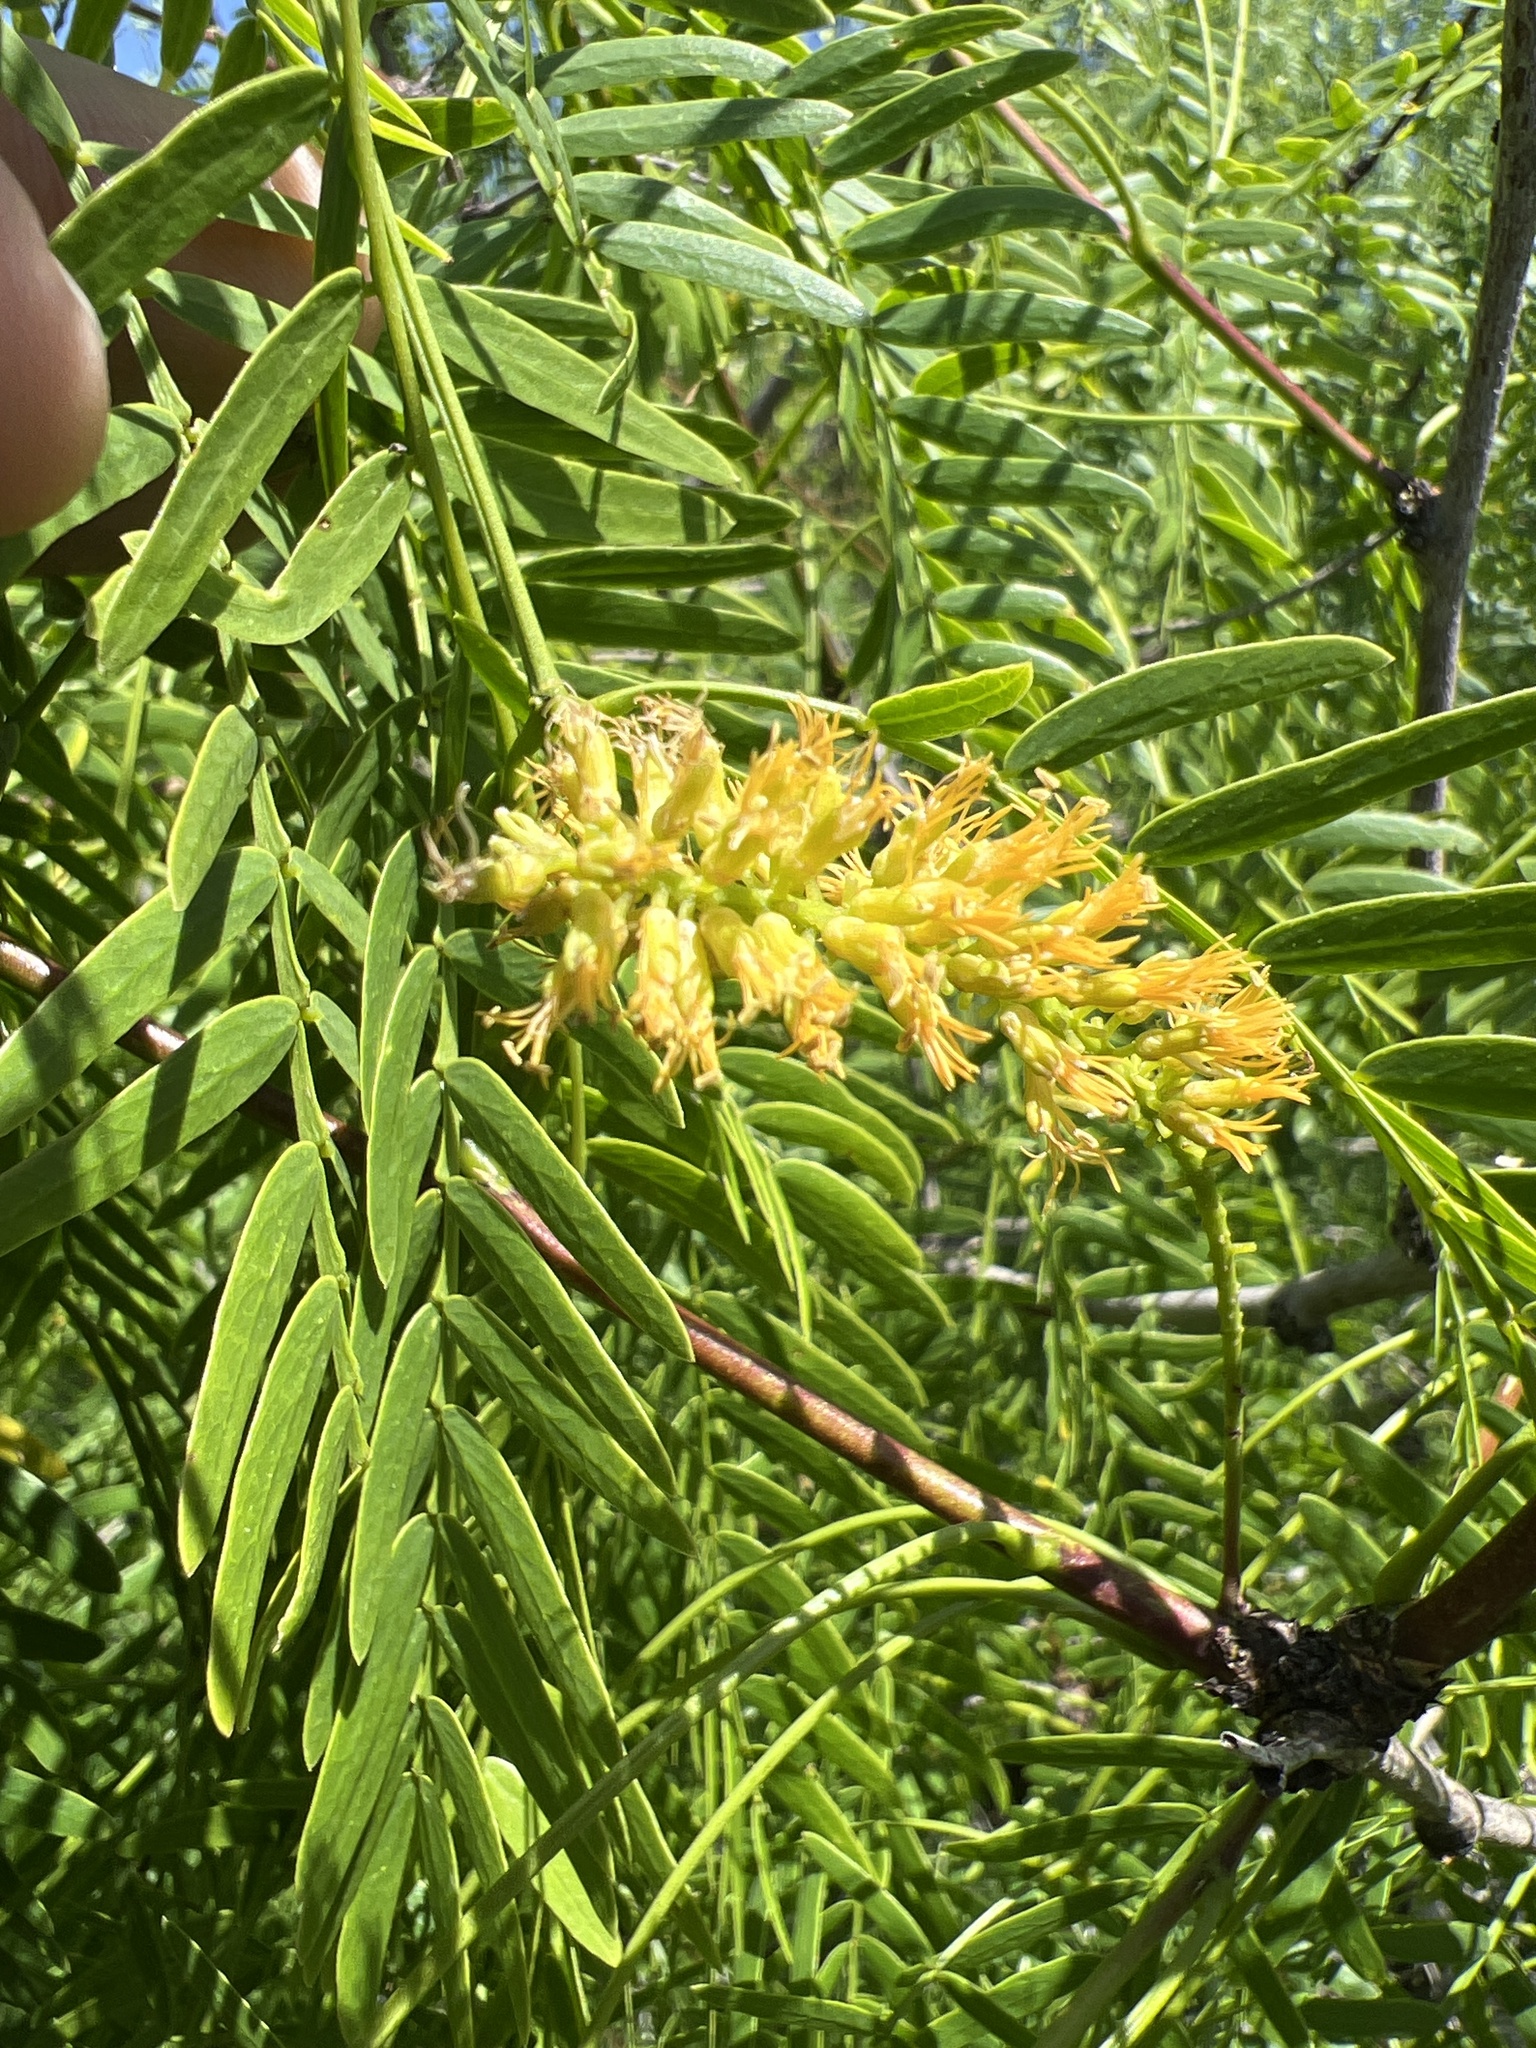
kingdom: Plantae
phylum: Tracheophyta
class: Magnoliopsida
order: Fabales
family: Fabaceae
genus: Prosopis
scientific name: Prosopis glandulosa
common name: Honey mesquite
